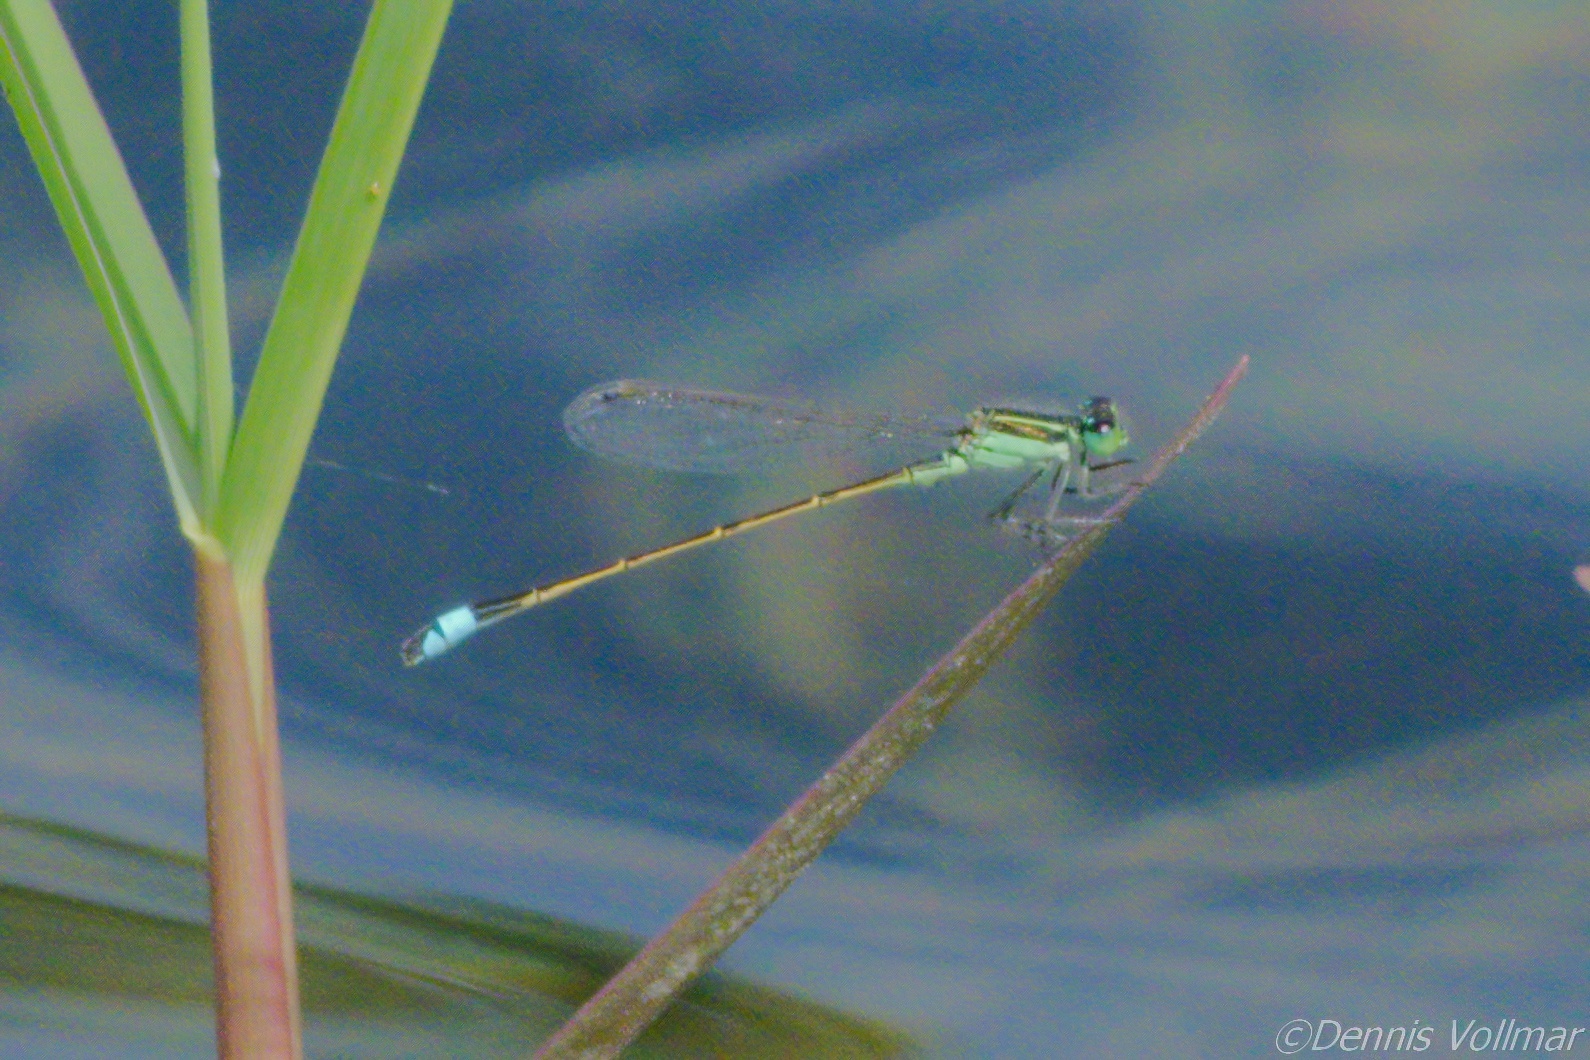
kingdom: Animalia
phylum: Arthropoda
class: Insecta
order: Odonata
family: Coenagrionidae
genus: Ischnura
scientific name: Ischnura ramburii
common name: Rambur's forktail
